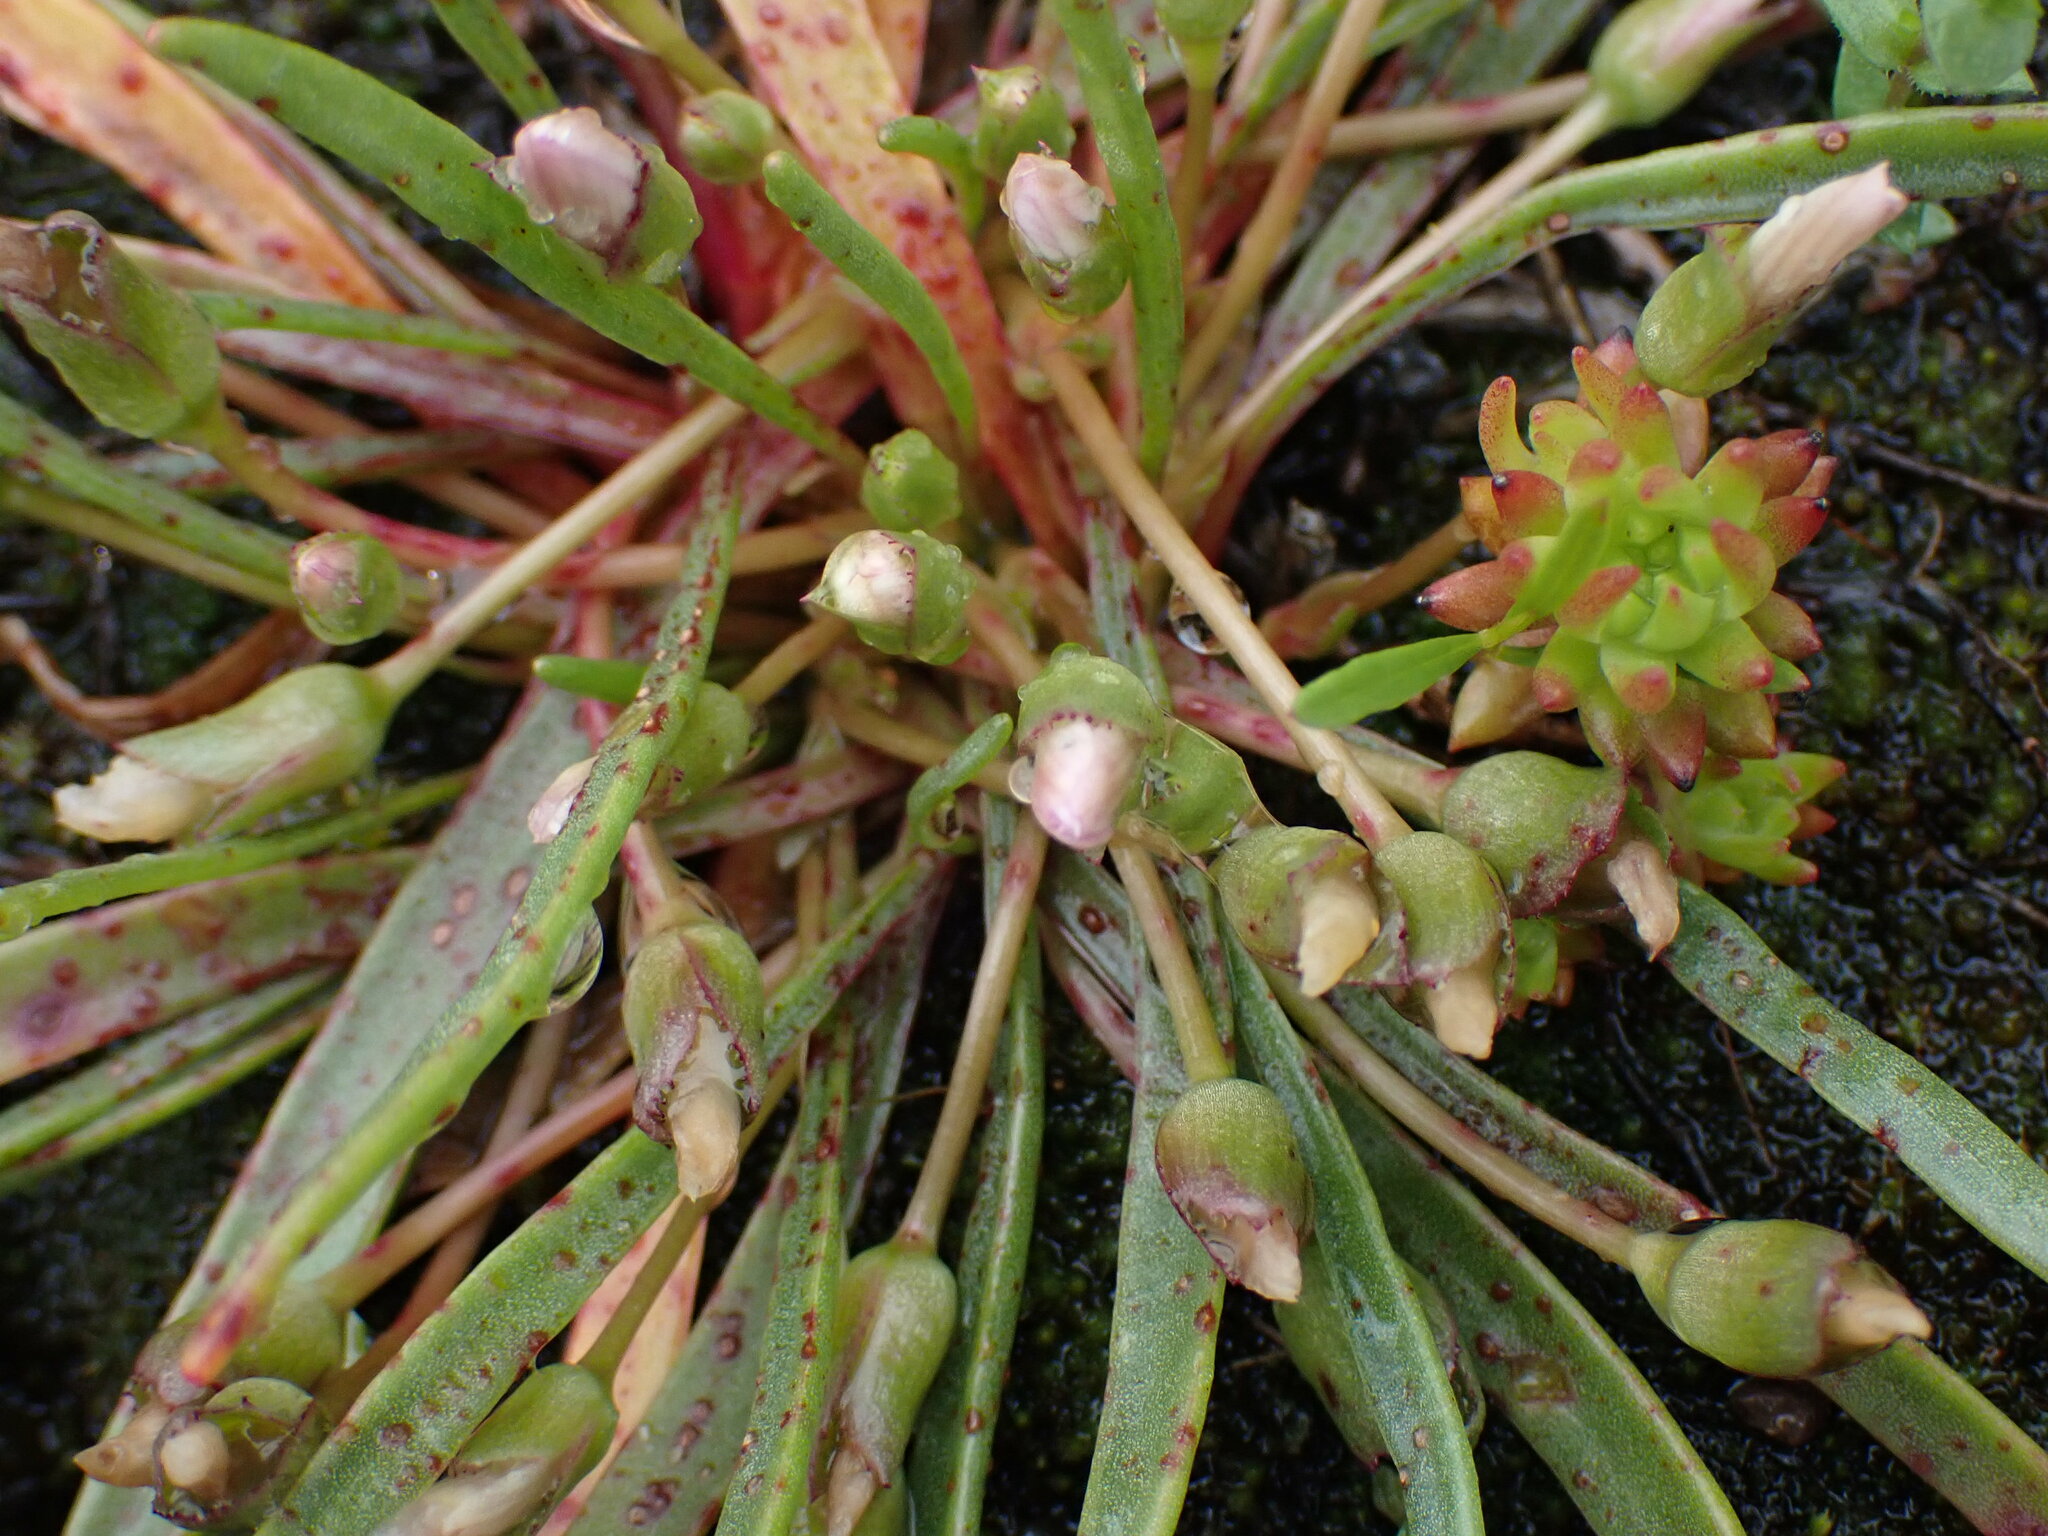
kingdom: Plantae
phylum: Tracheophyta
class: Magnoliopsida
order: Caryophyllales
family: Montiaceae
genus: Lewisia
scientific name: Lewisia pygmaea
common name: Alpine bitterroot
